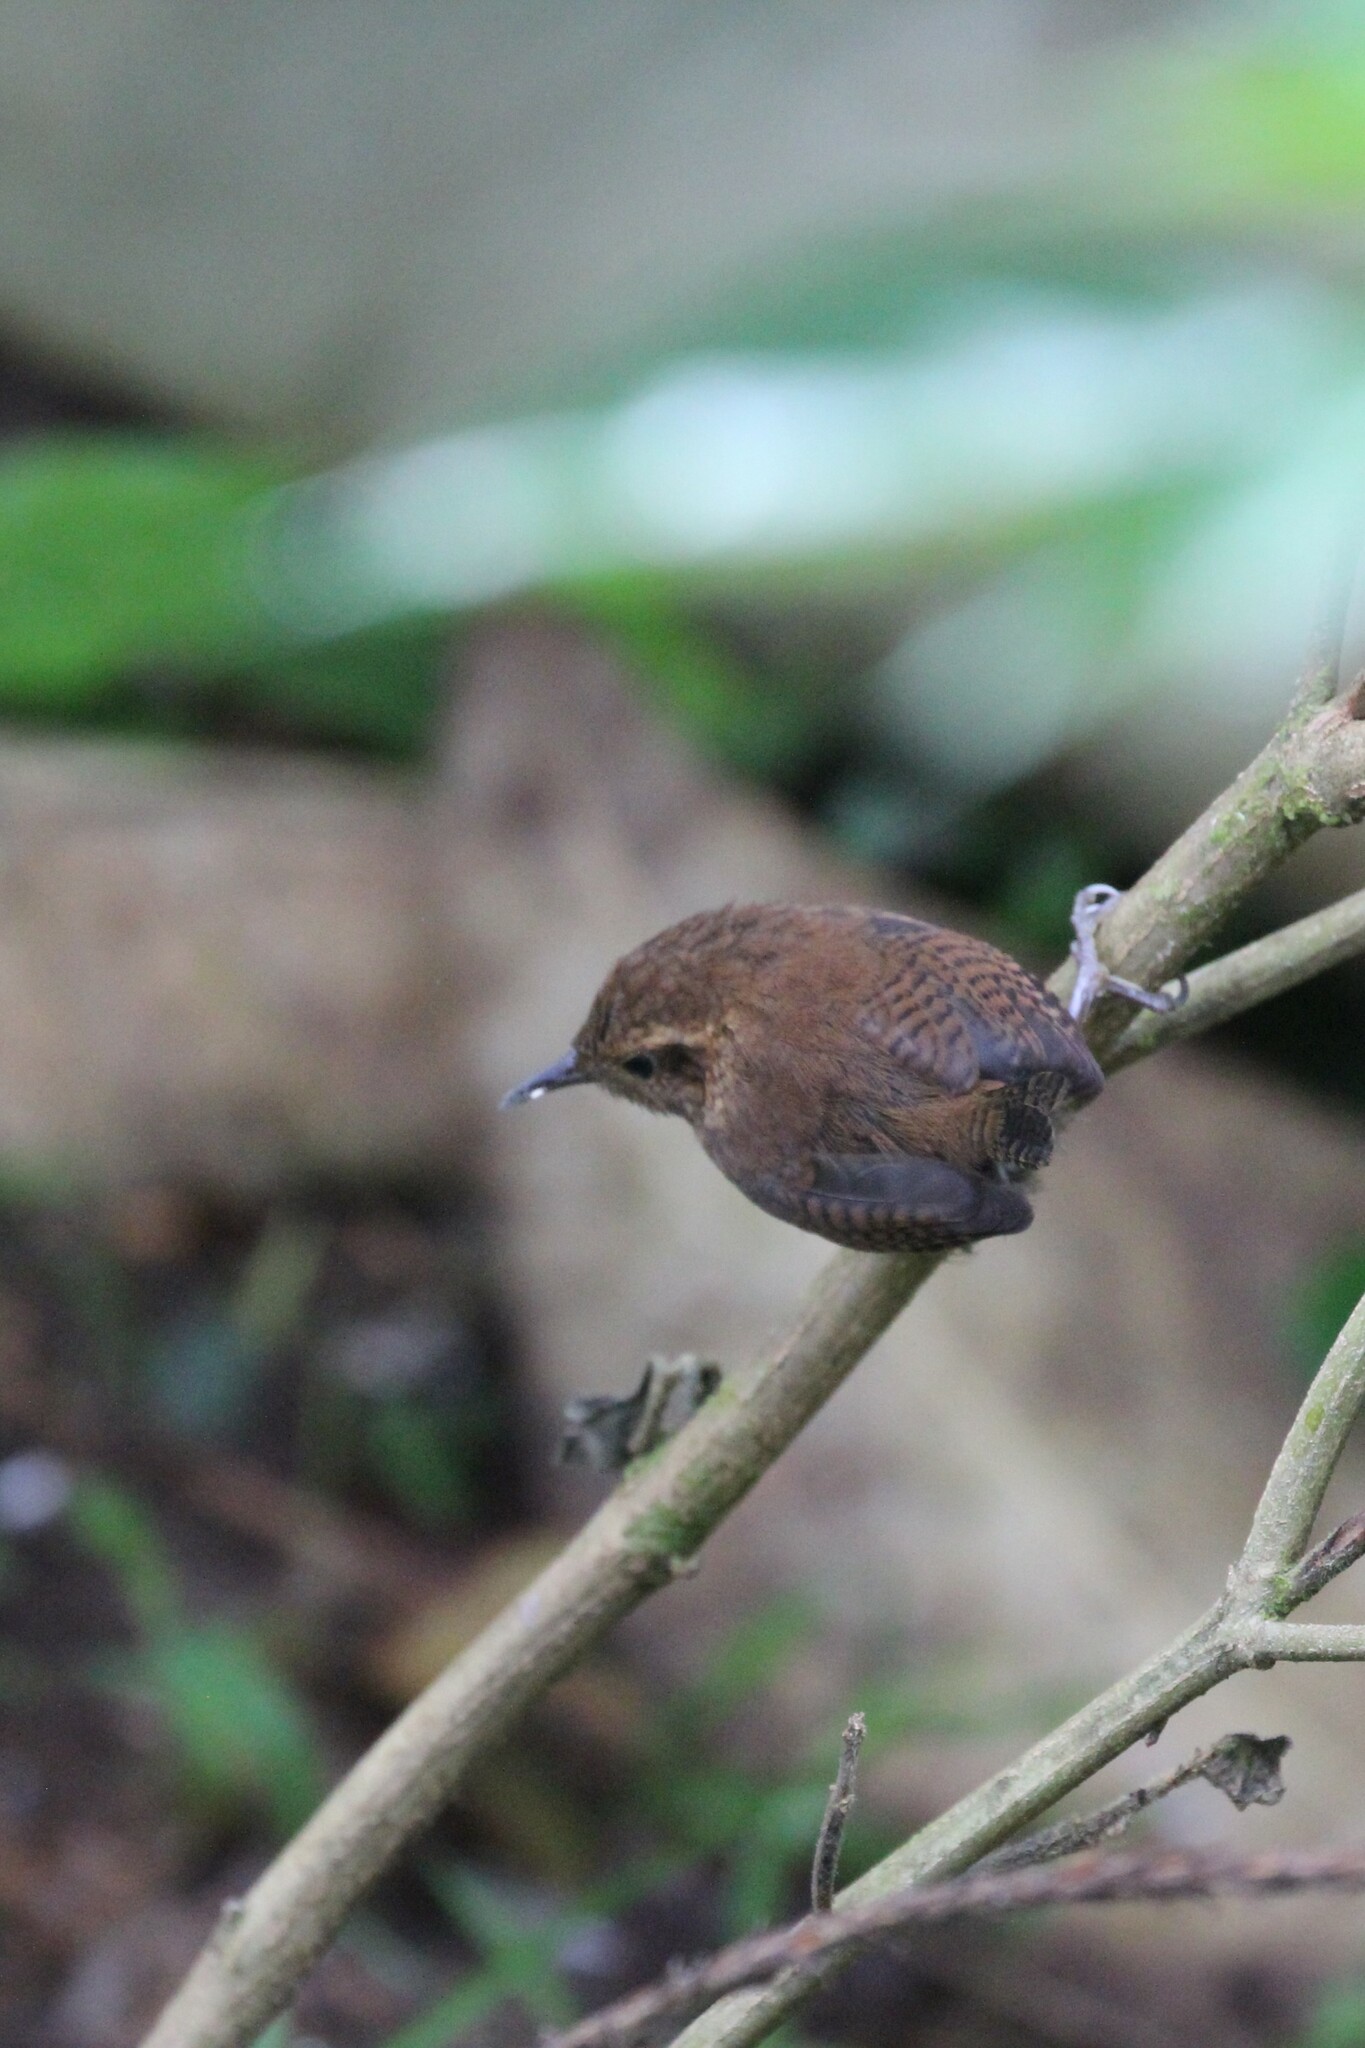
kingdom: Animalia
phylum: Chordata
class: Aves
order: Passeriformes
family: Troglodytidae
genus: Troglodytes
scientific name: Troglodytes solstitialis
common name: Mountain wren
